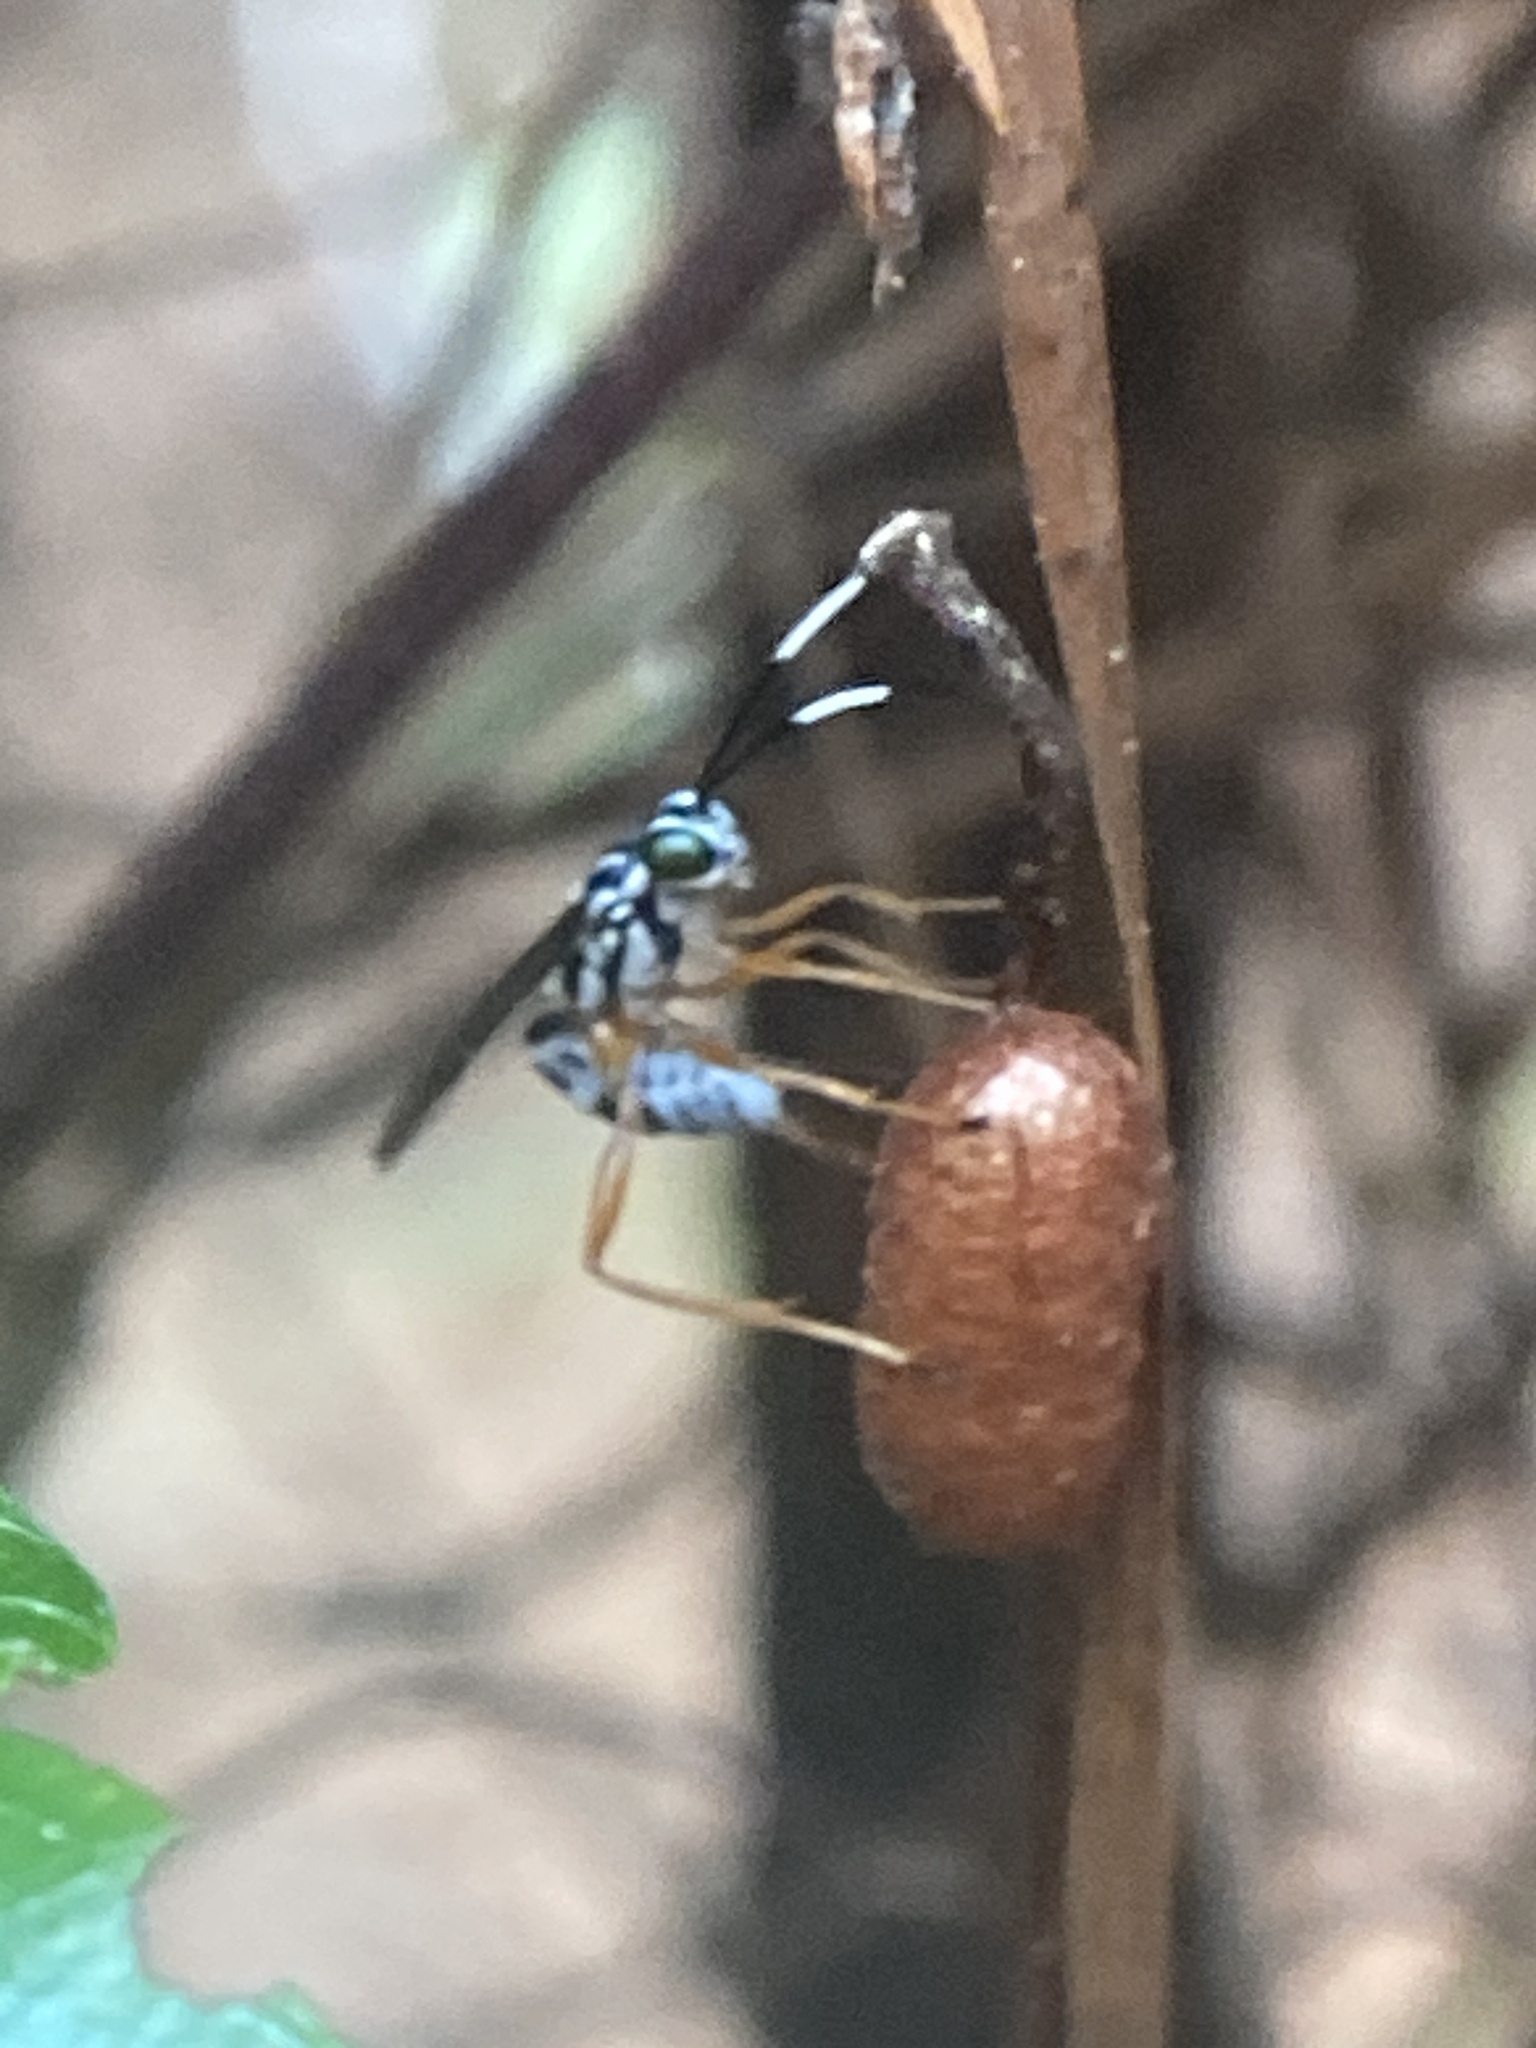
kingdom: Animalia
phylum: Arthropoda
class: Insecta
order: Hymenoptera
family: Ichneumonidae
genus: Lymeon
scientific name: Lymeon orbus
